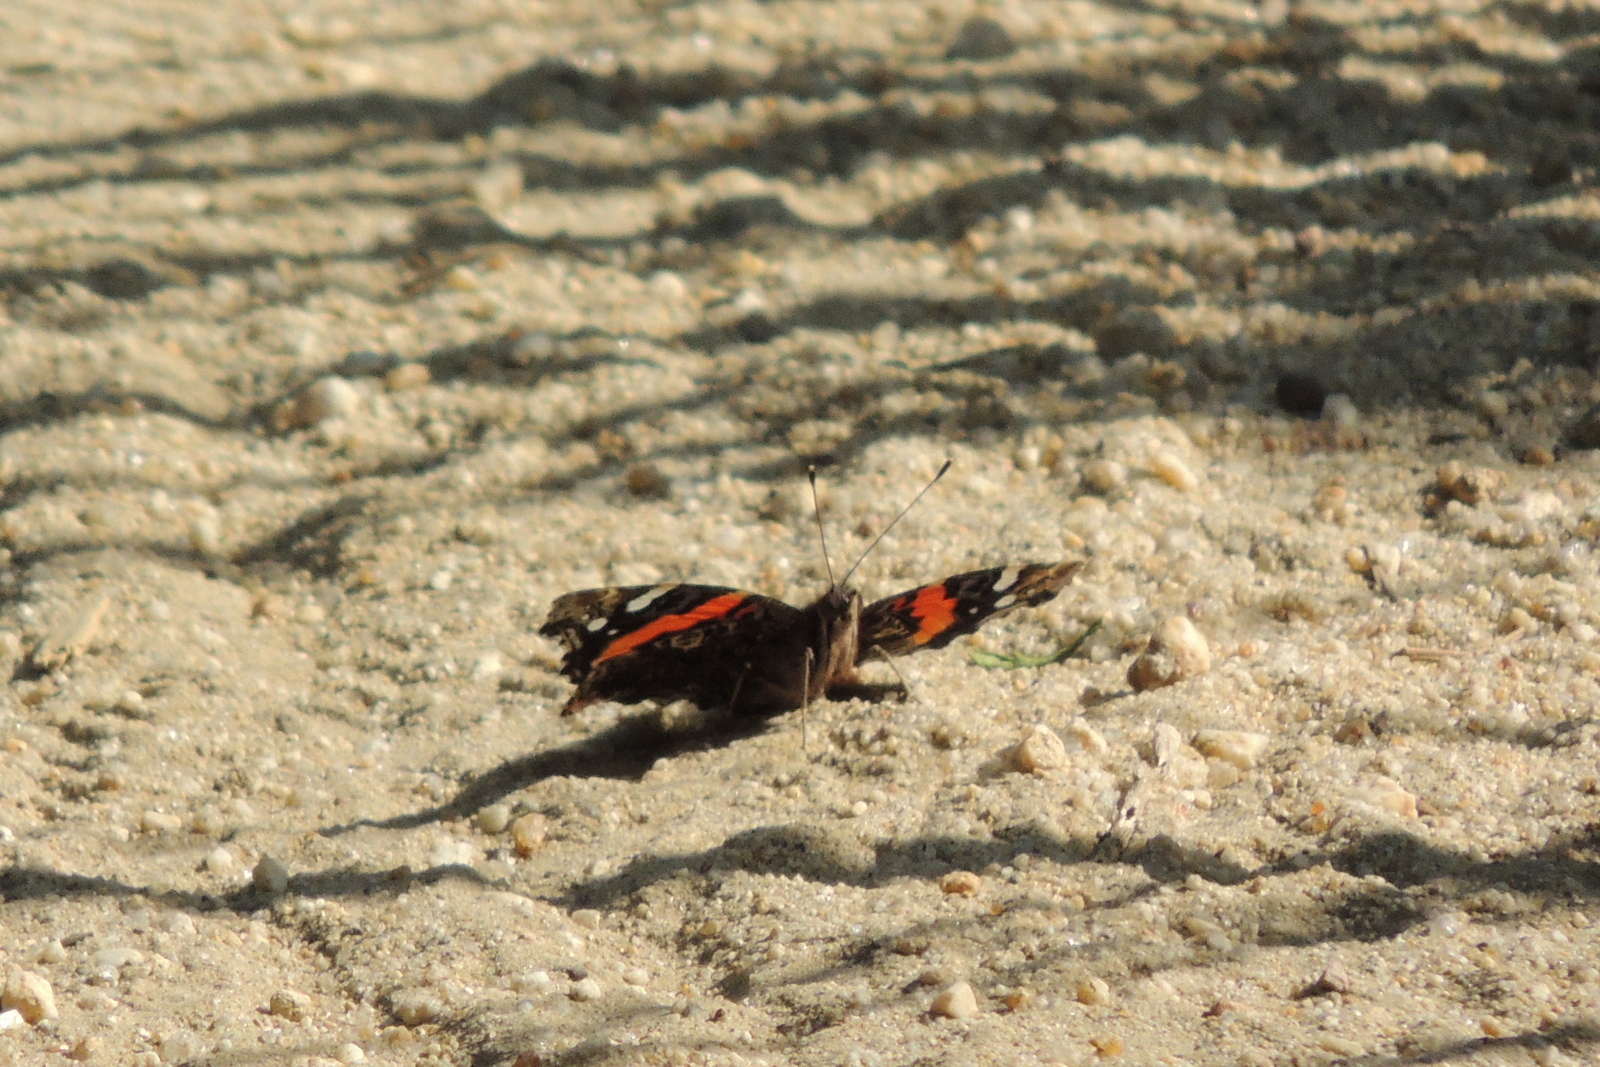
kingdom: Animalia
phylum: Arthropoda
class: Insecta
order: Lepidoptera
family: Nymphalidae
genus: Vanessa
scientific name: Vanessa atalanta
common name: Red admiral
